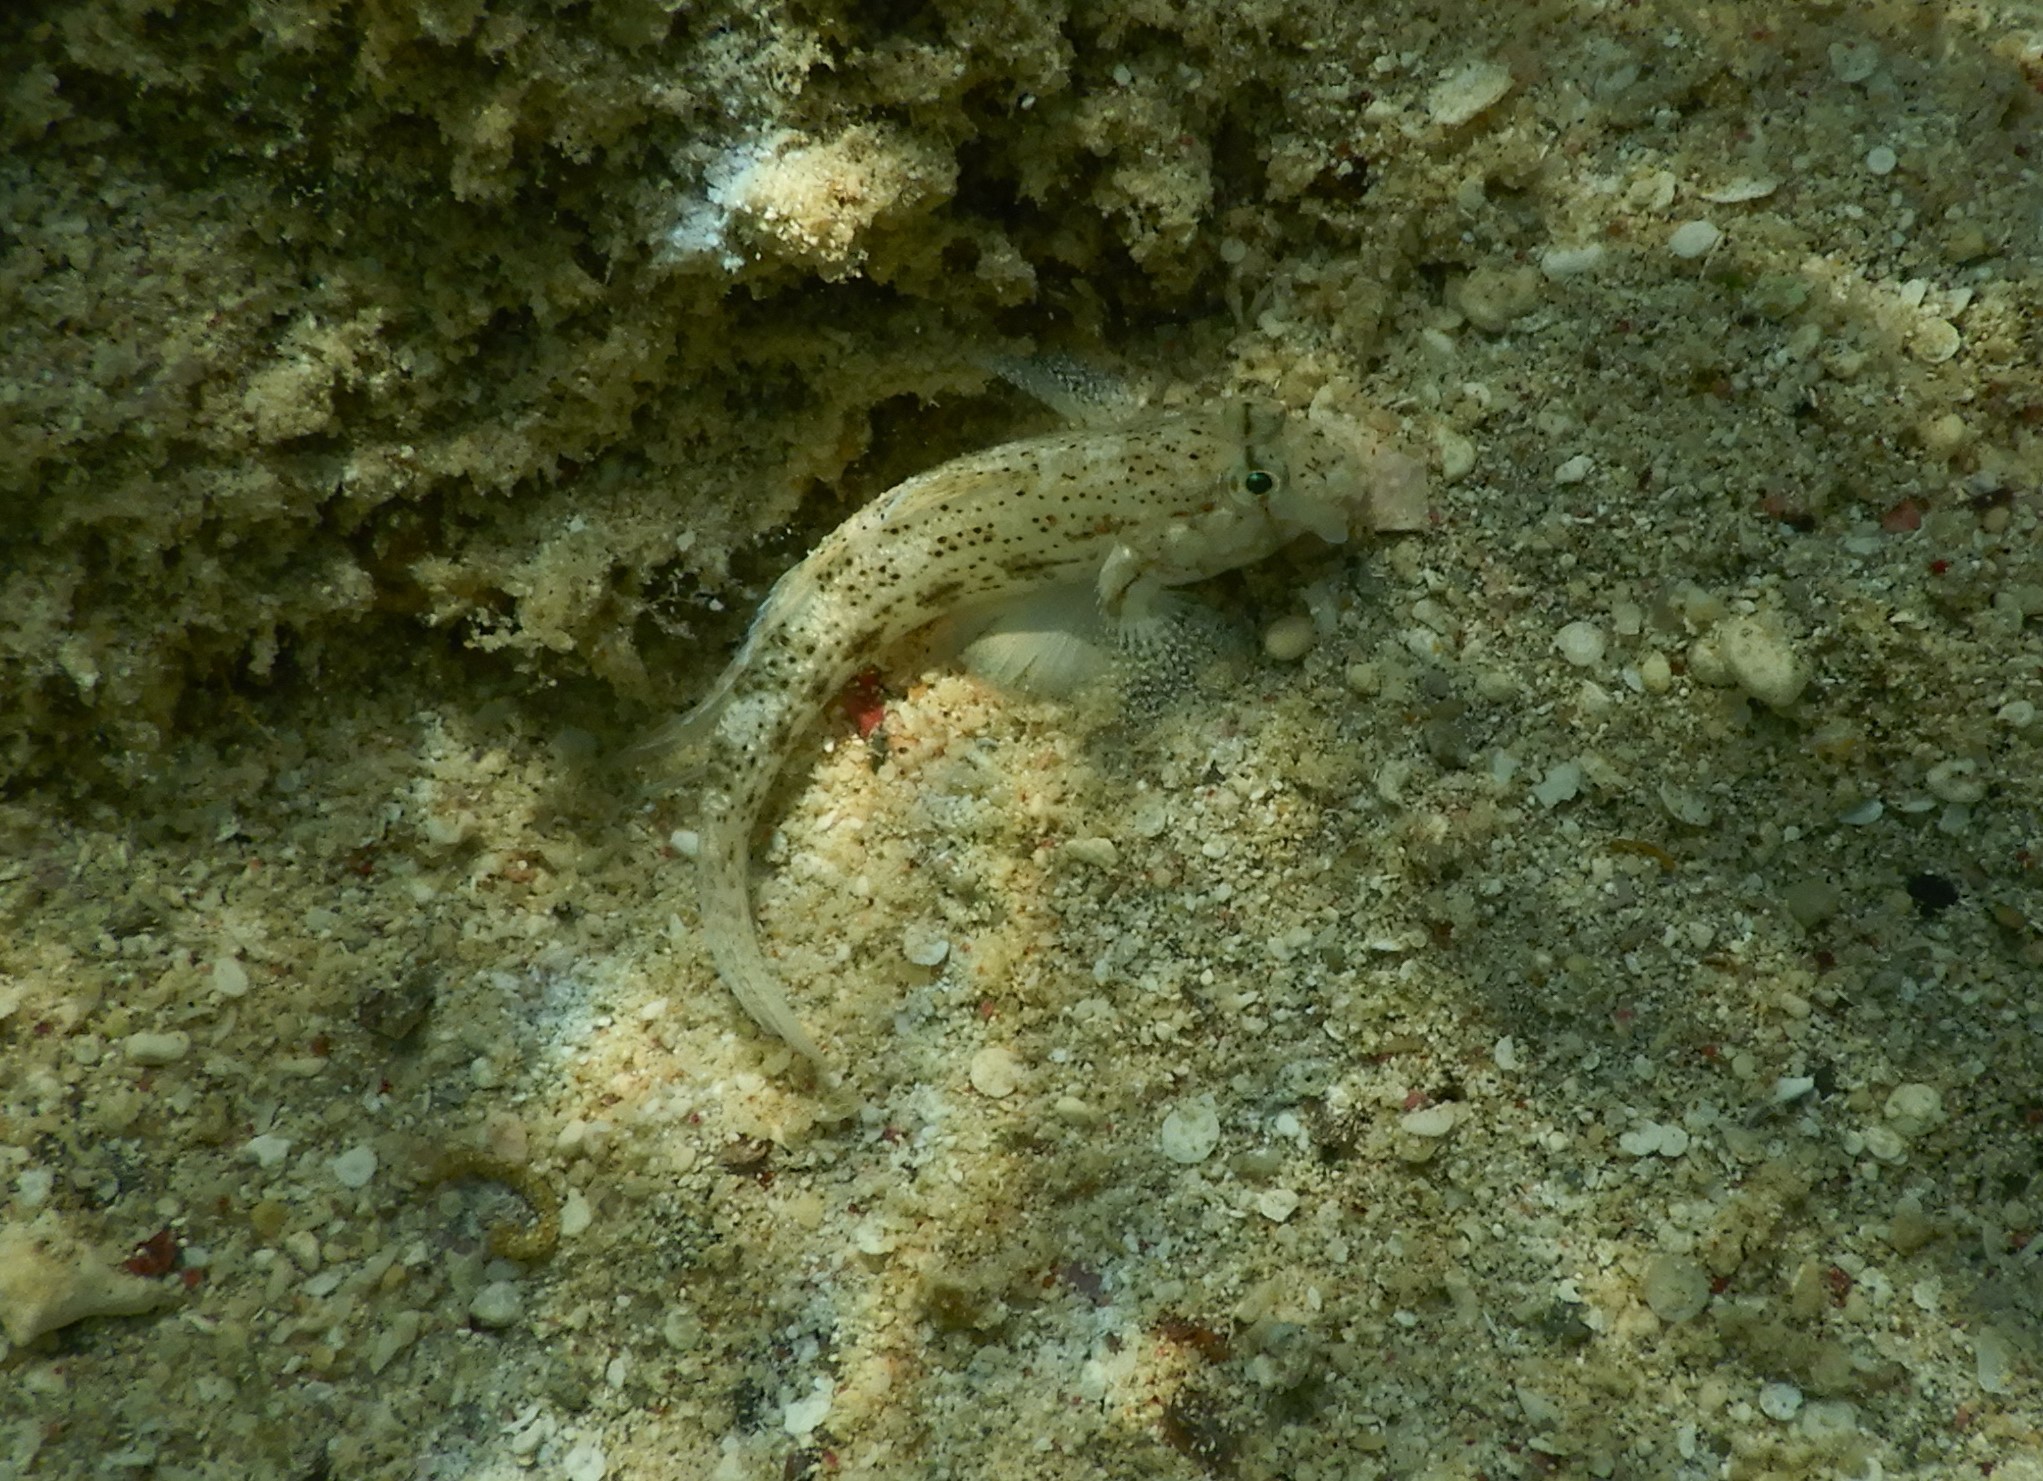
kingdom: Animalia
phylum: Chordata
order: Perciformes
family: Gobiidae
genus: Gnatholepis
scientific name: Gnatholepis anjerensis
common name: Anjer eye-bar goby
